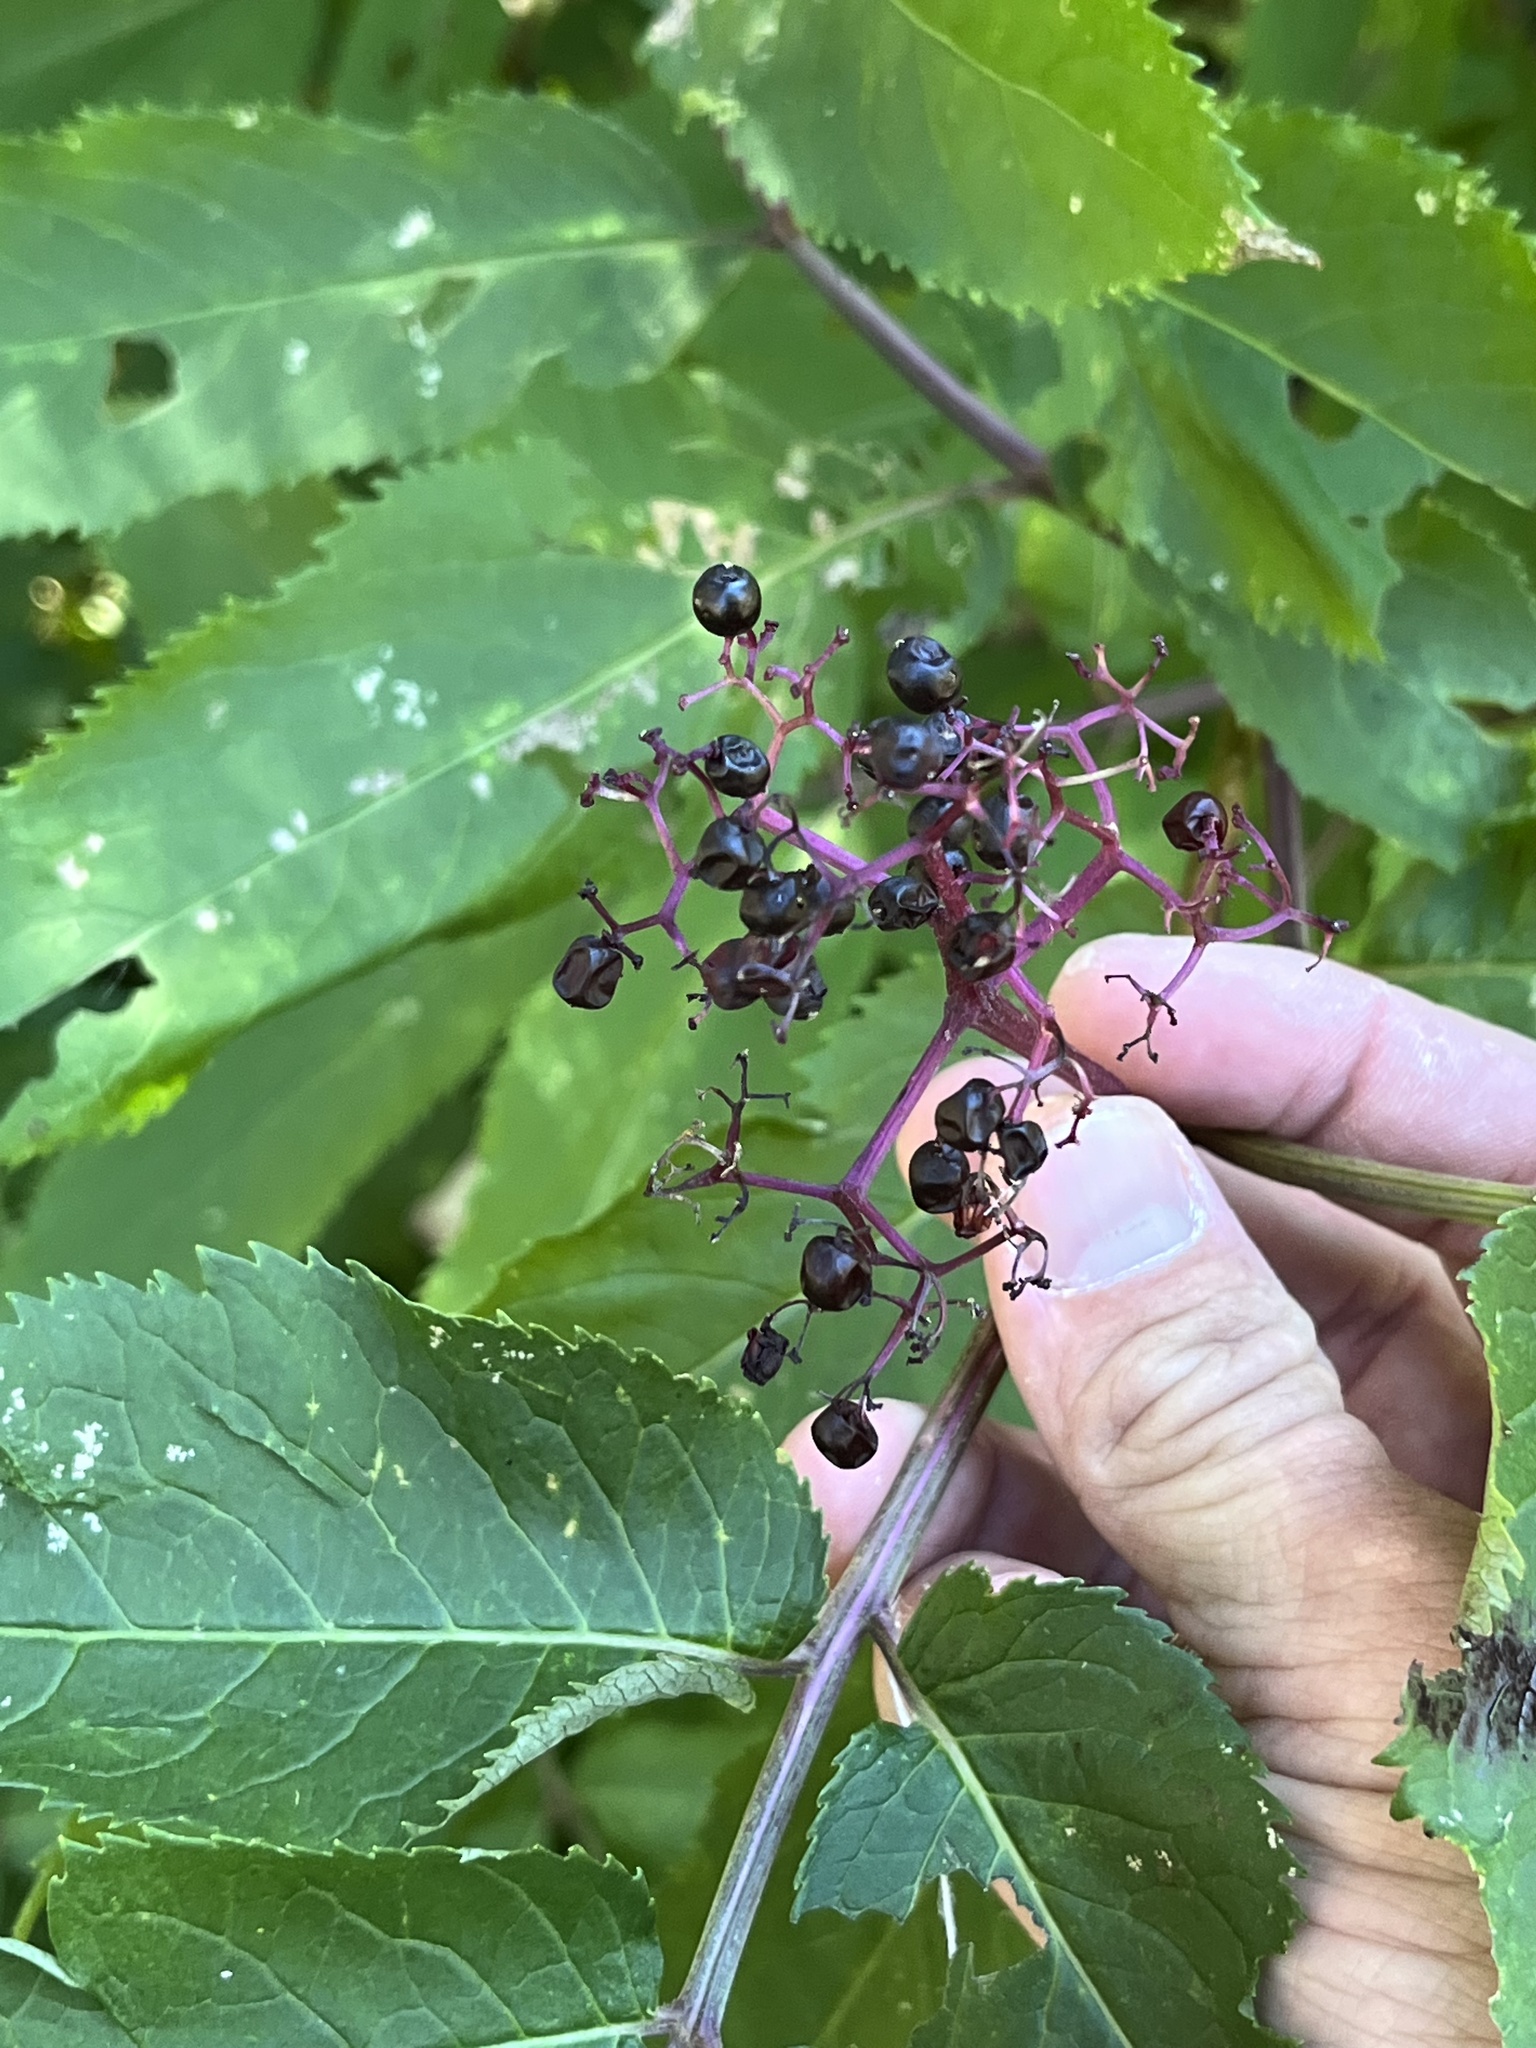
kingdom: Plantae
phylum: Tracheophyta
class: Magnoliopsida
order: Dipsacales
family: Viburnaceae
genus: Sambucus
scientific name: Sambucus racemosa
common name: Red-berried elder
